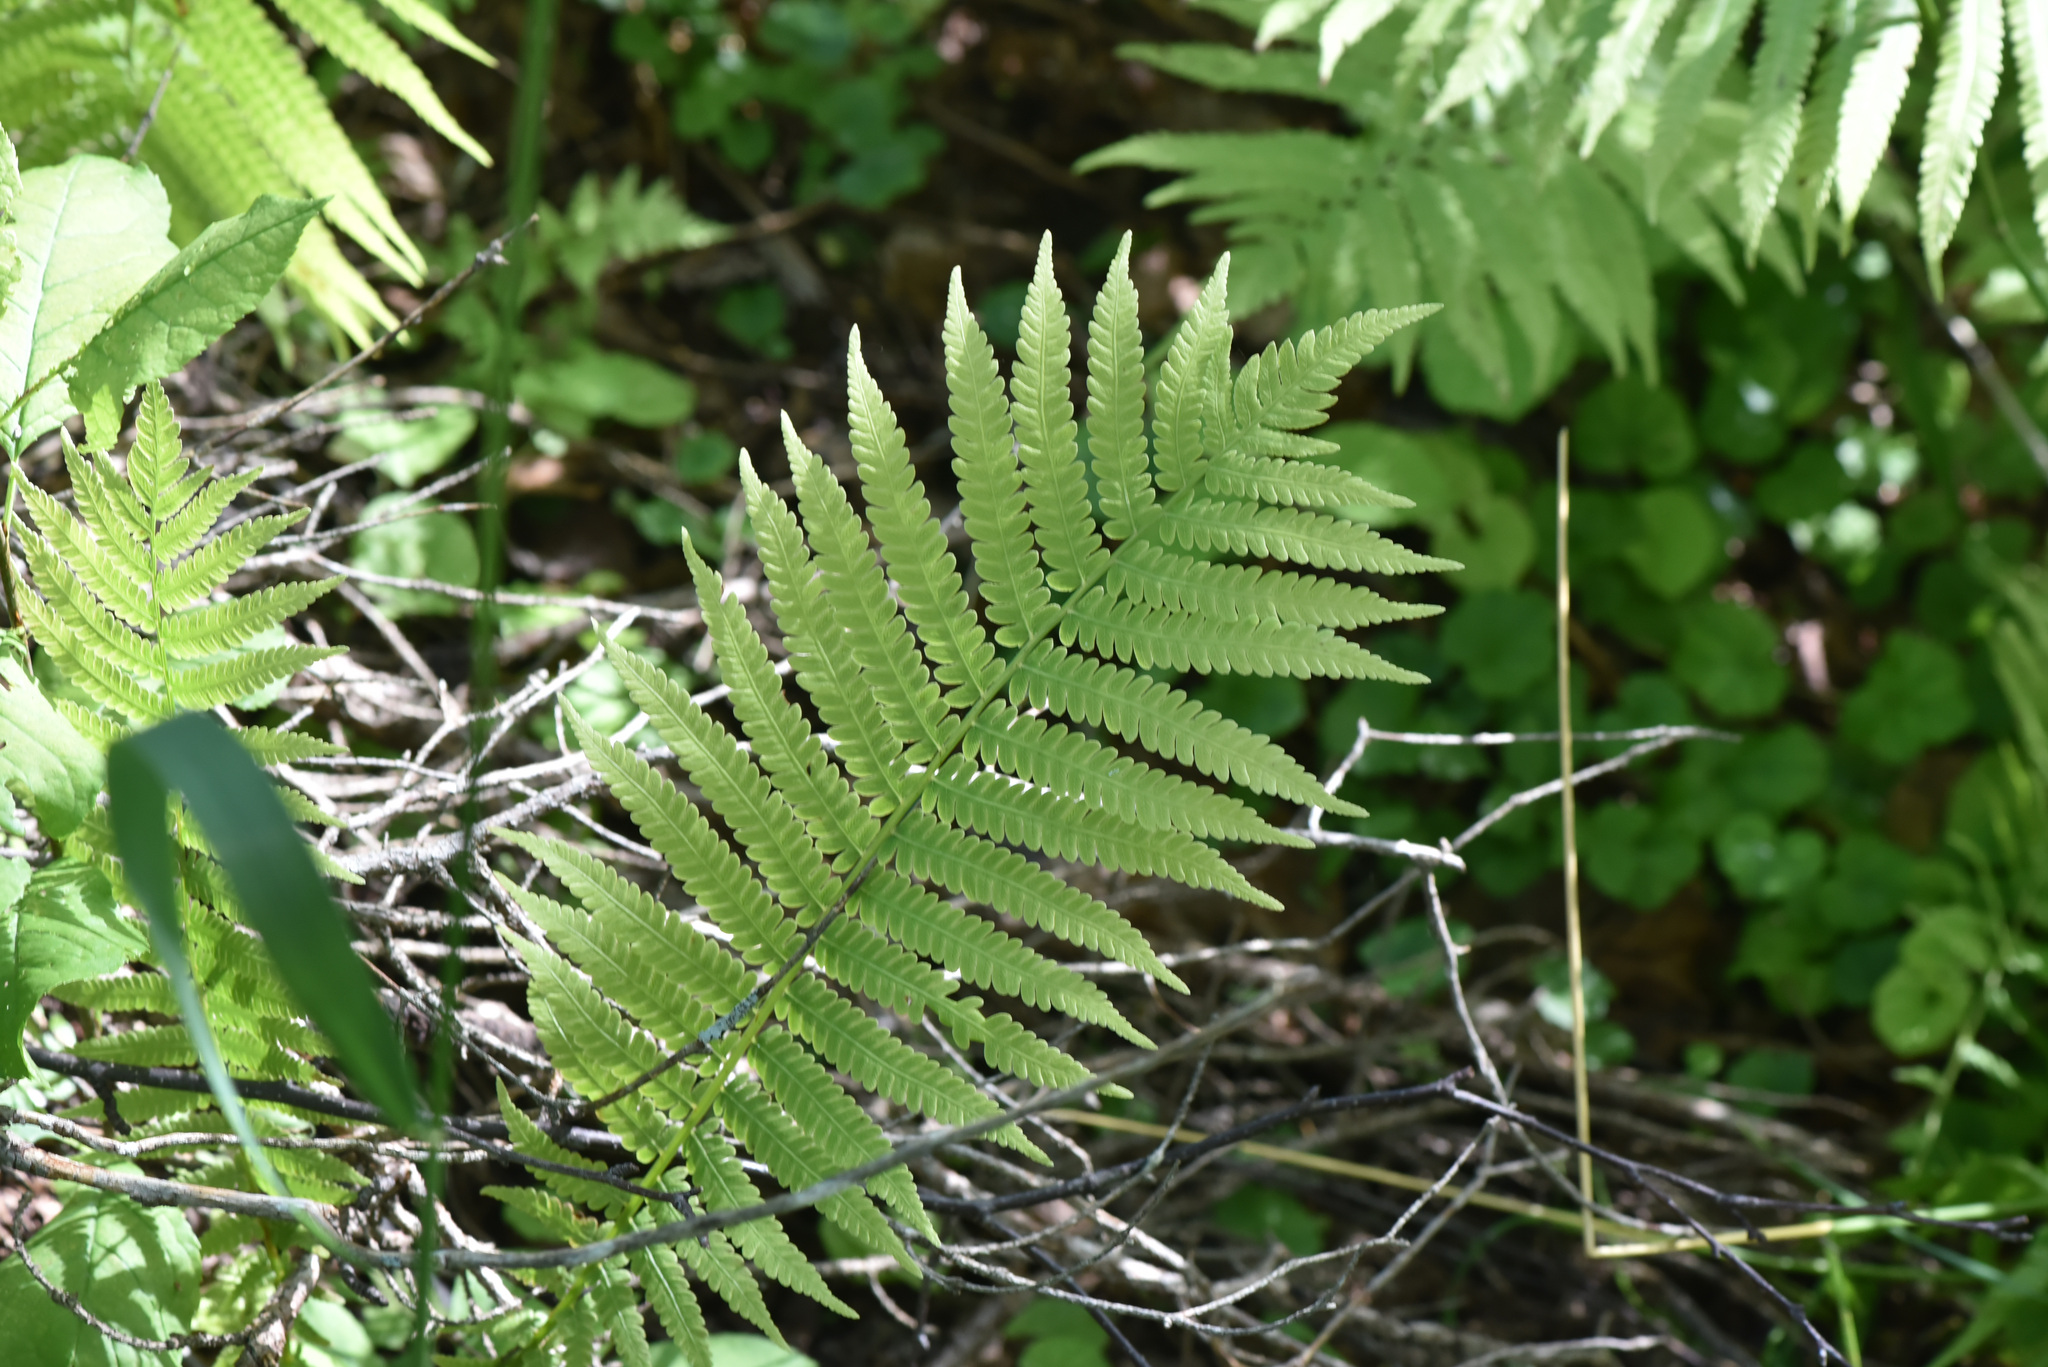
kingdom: Plantae
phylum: Tracheophyta
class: Polypodiopsida
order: Polypodiales
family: Onocleaceae
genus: Matteuccia
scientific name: Matteuccia struthiopteris
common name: Ostrich fern
